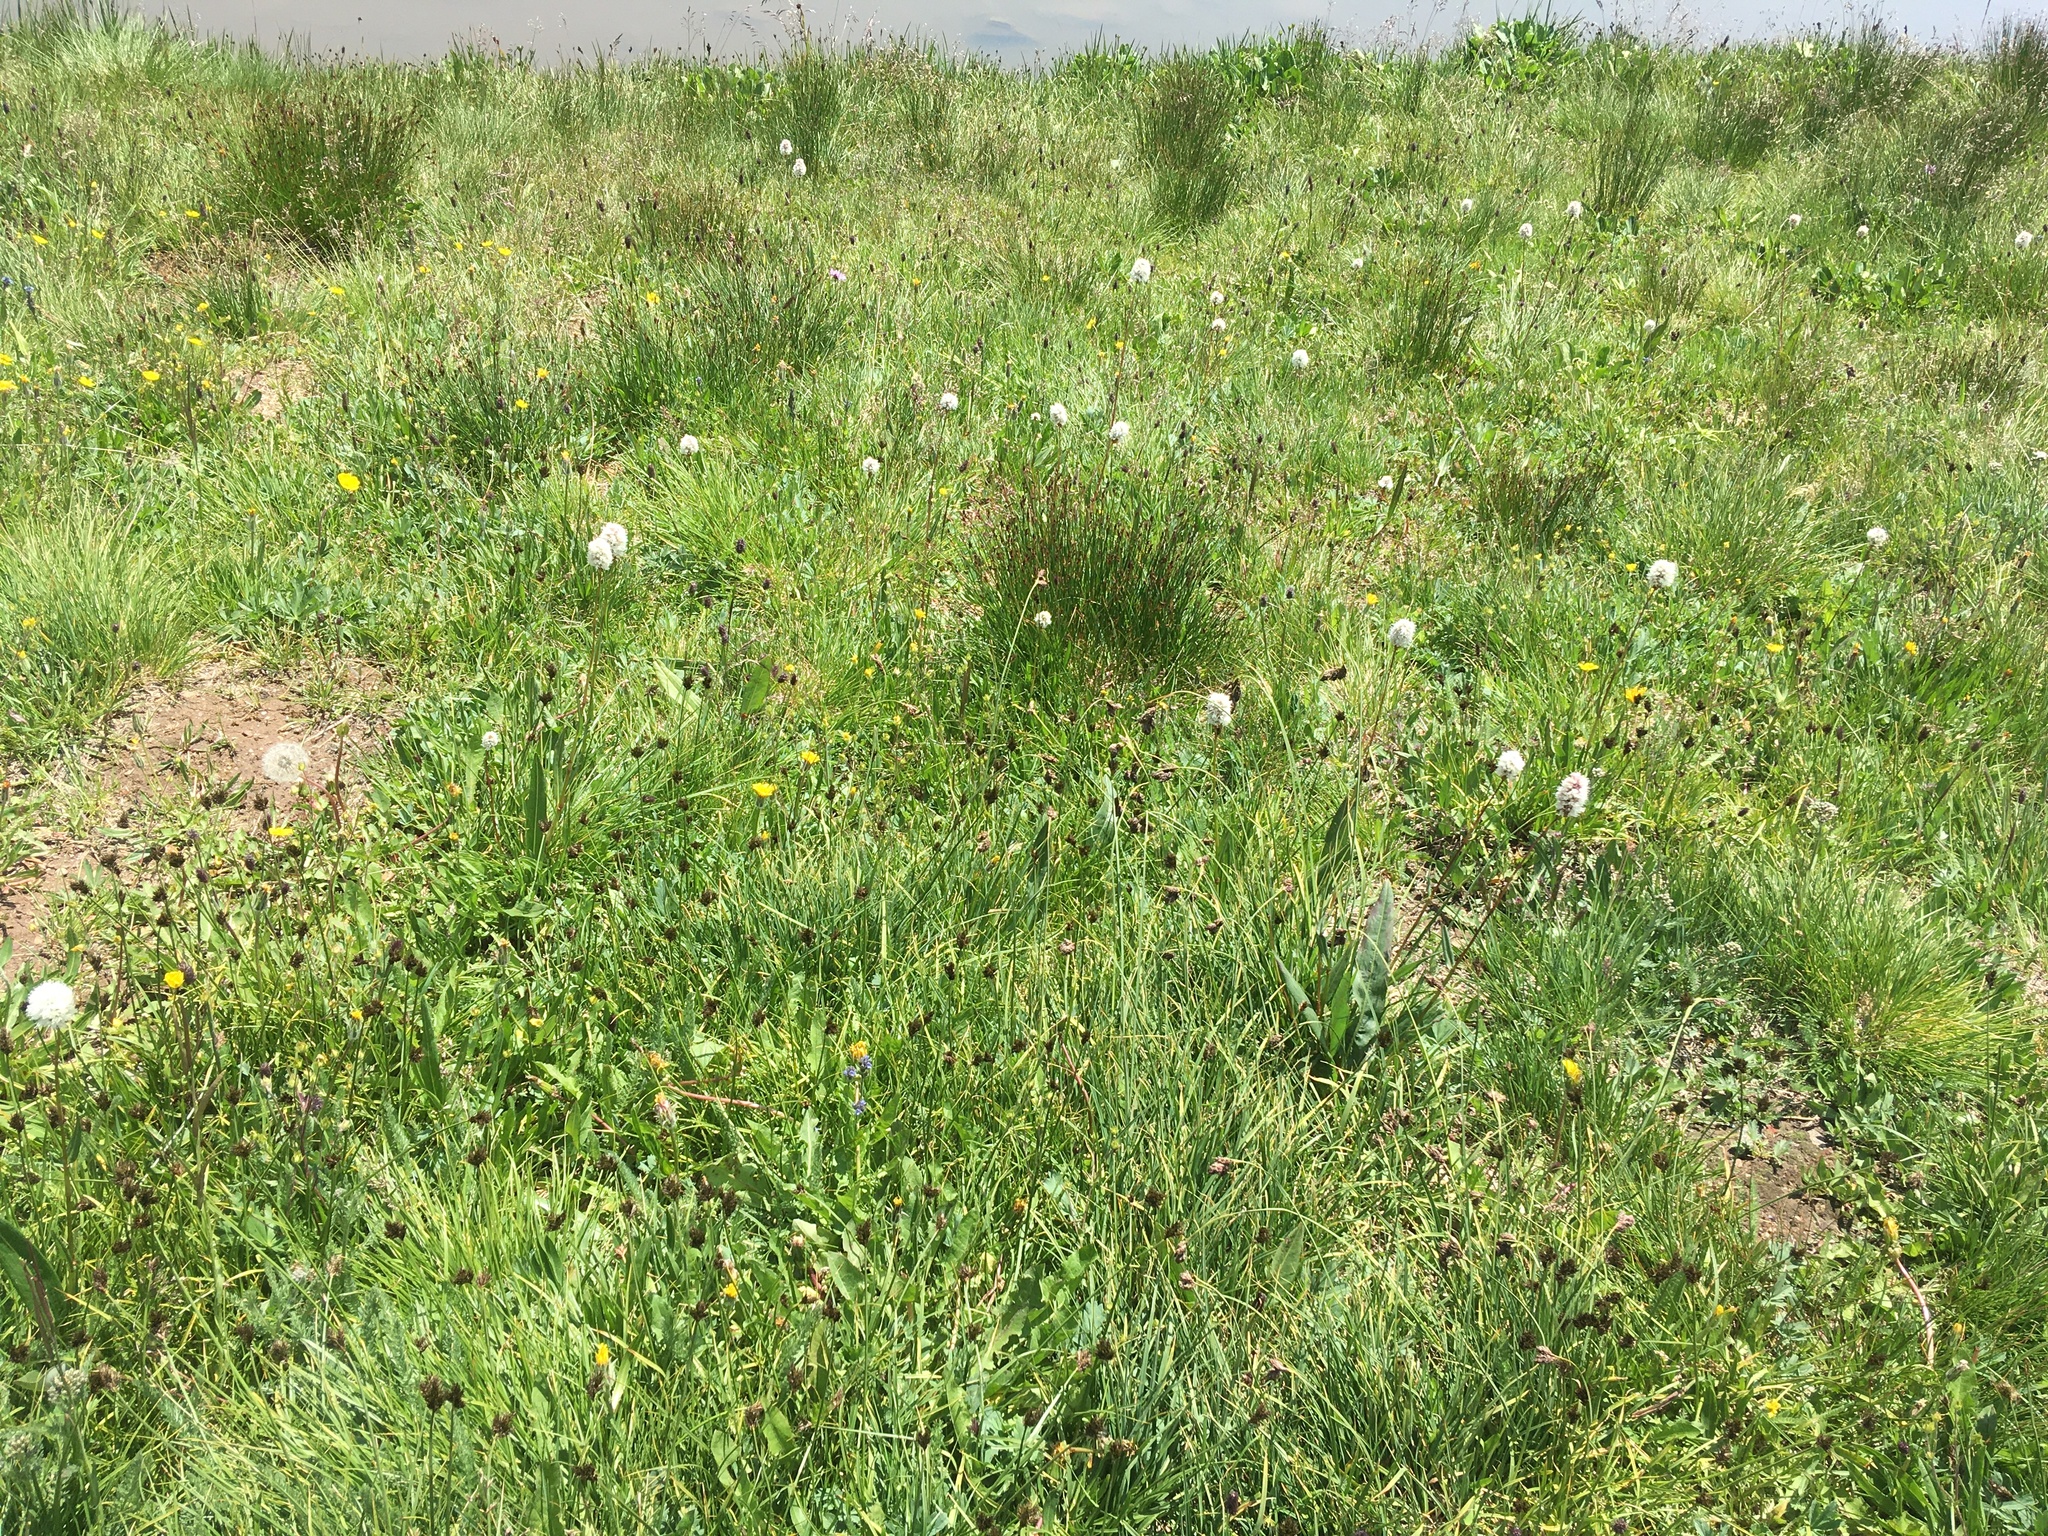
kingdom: Plantae
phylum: Tracheophyta
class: Magnoliopsida
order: Caryophyllales
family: Polygonaceae
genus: Bistorta
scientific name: Bistorta bistortoides
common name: American bistort
